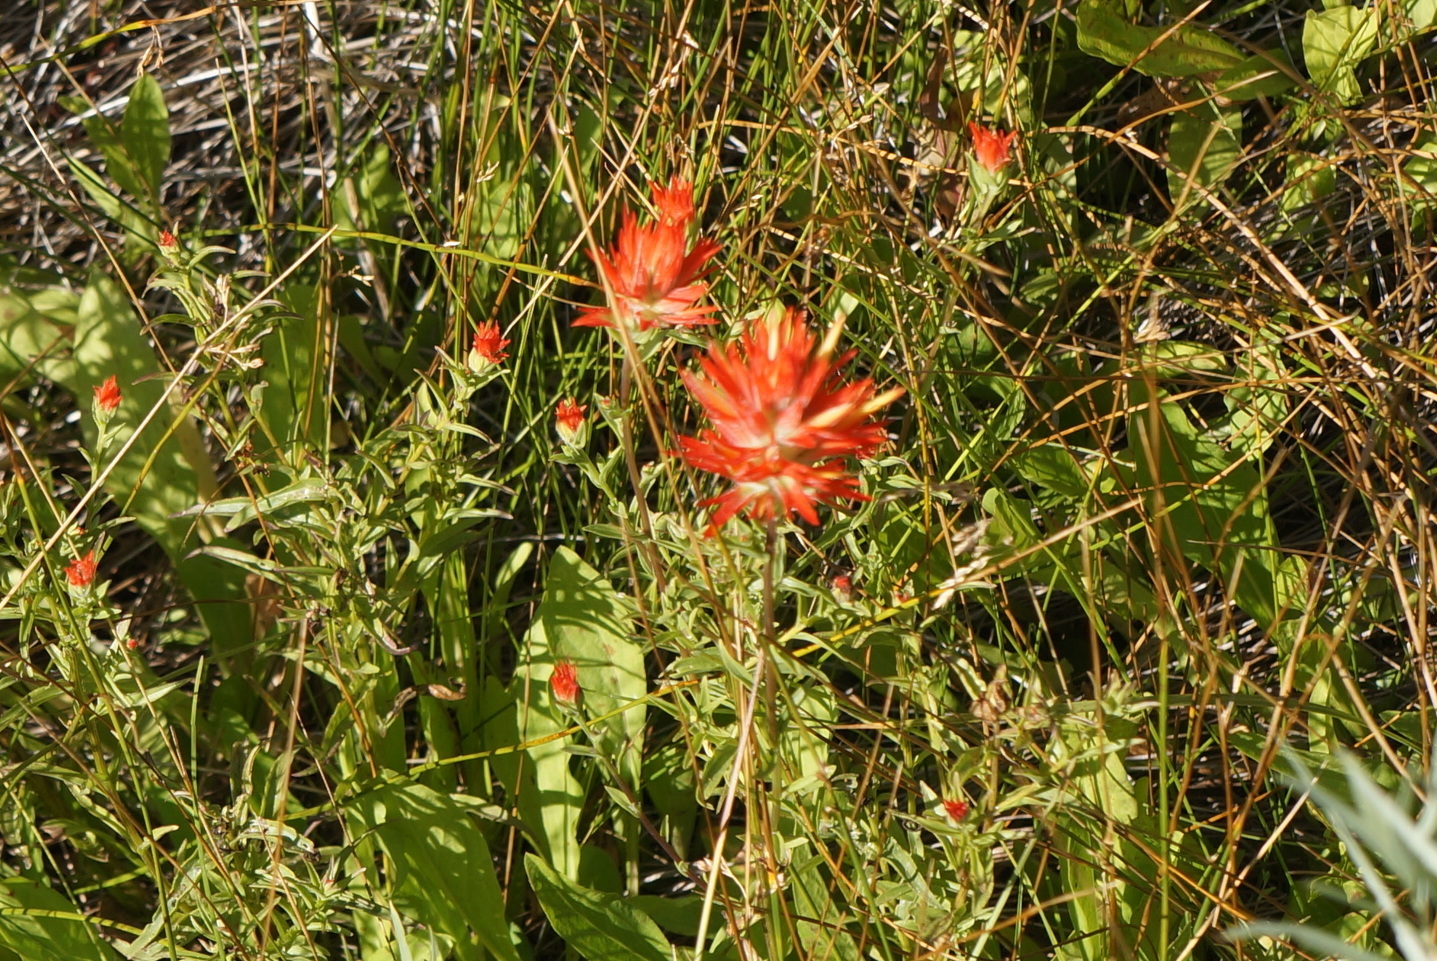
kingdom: Plantae
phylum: Tracheophyta
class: Magnoliopsida
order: Lamiales
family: Orobanchaceae
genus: Castilleja
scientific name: Castilleja miniata
